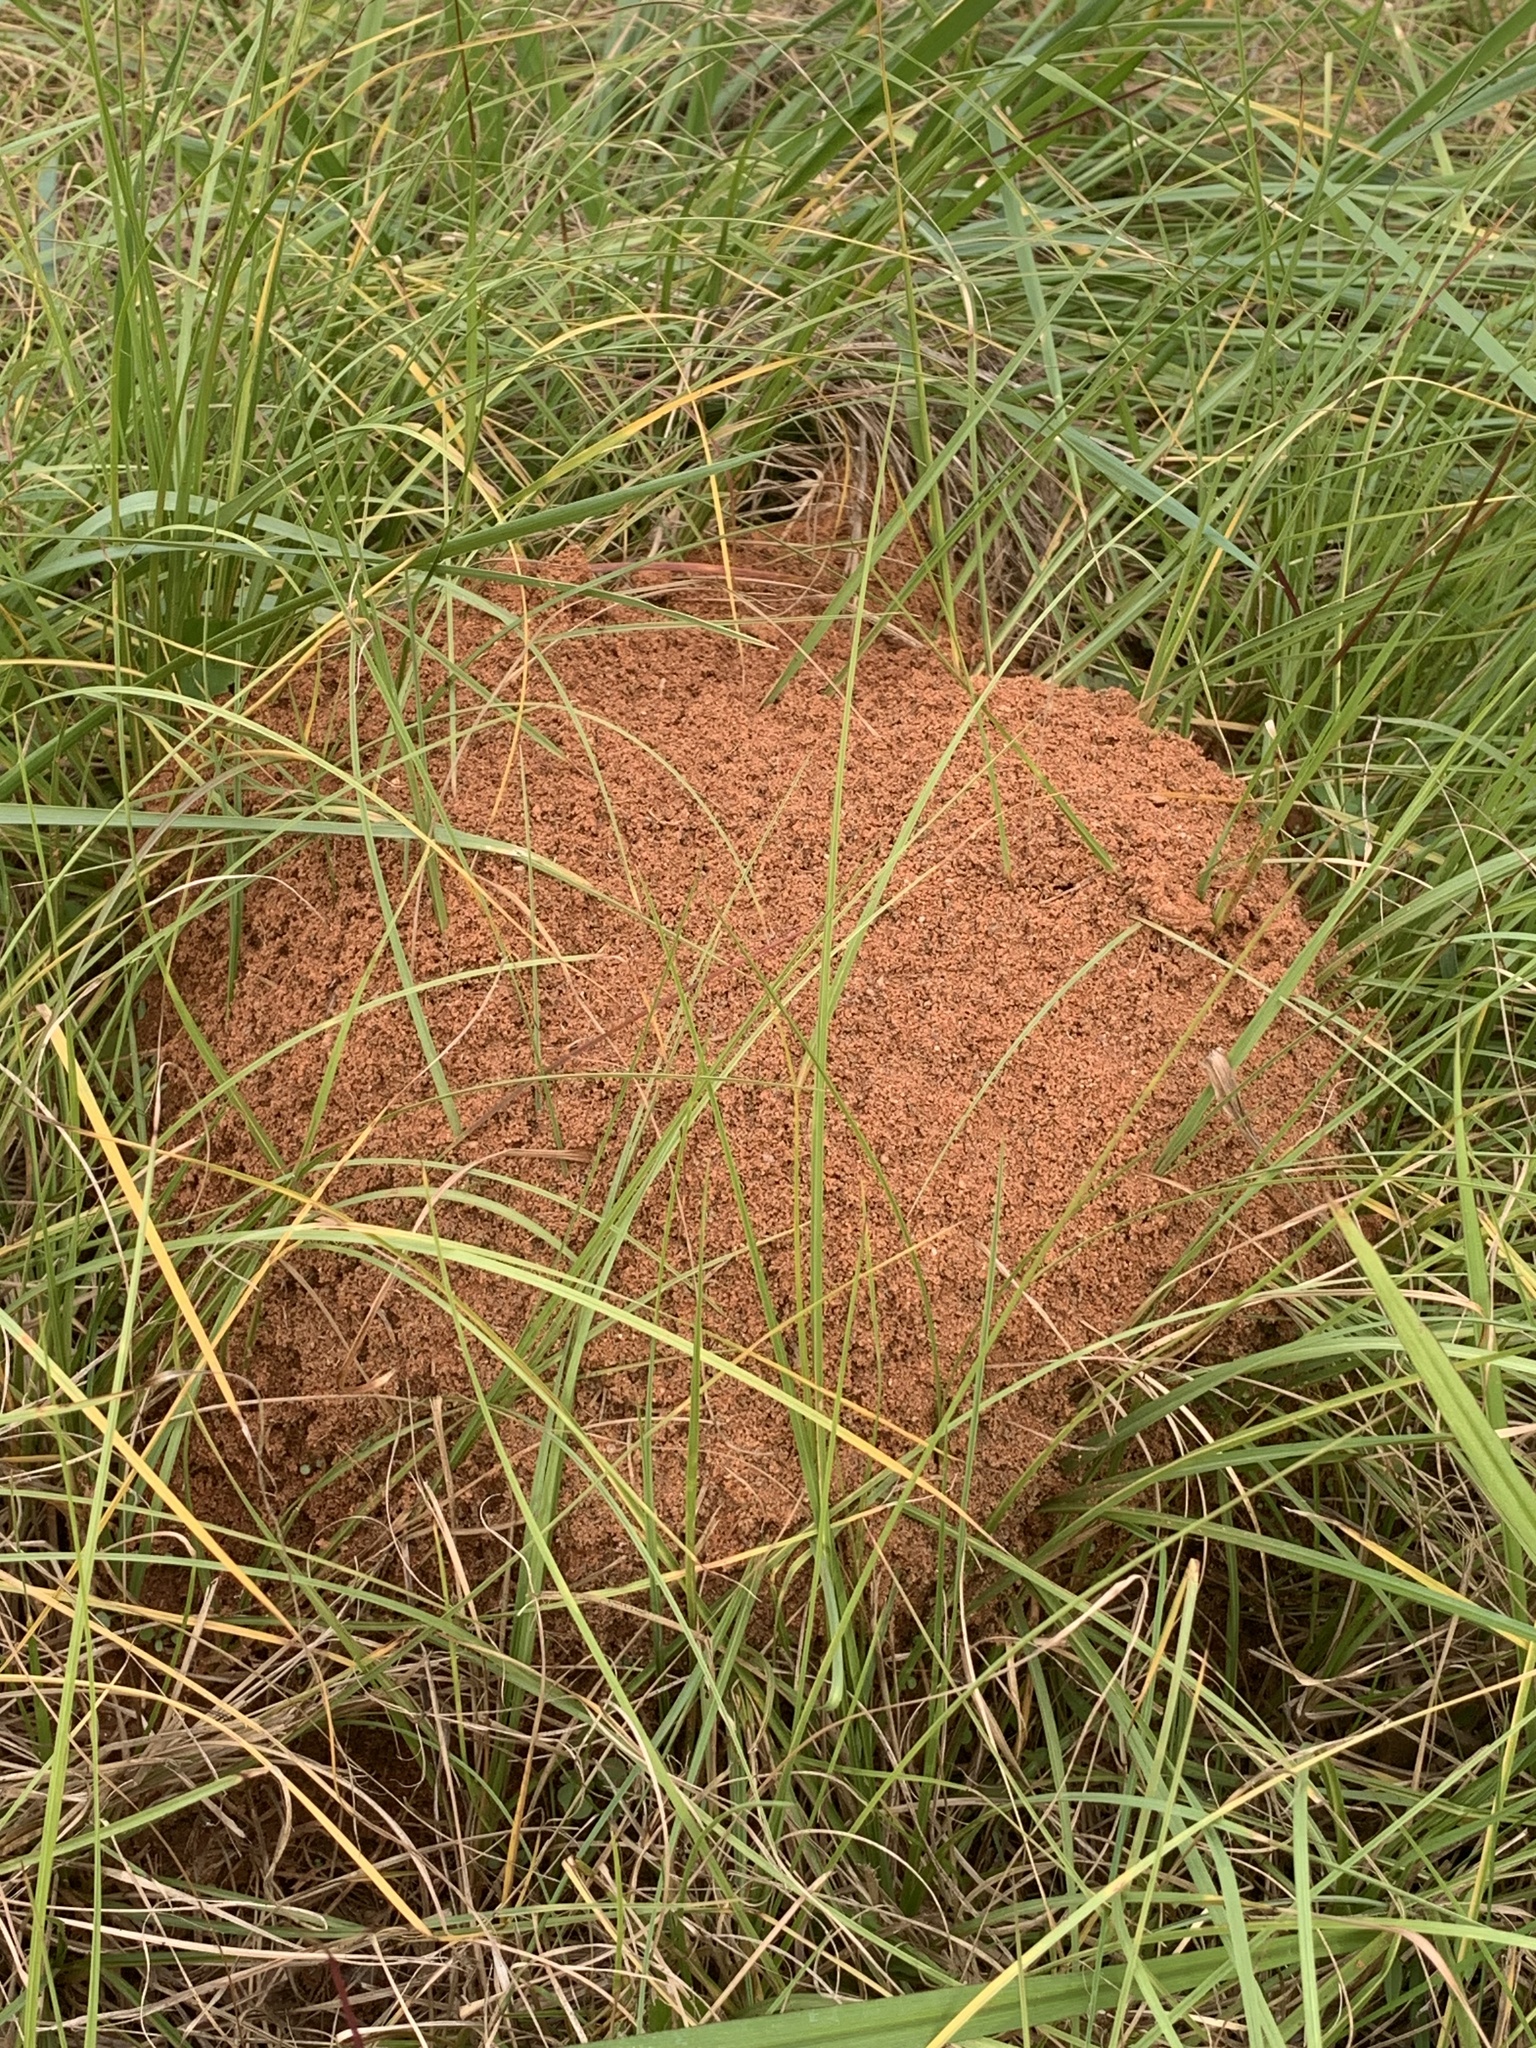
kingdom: Animalia
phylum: Arthropoda
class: Insecta
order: Hymenoptera
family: Formicidae
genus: Solenopsis
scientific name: Solenopsis invicta
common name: Red imported fire ant
